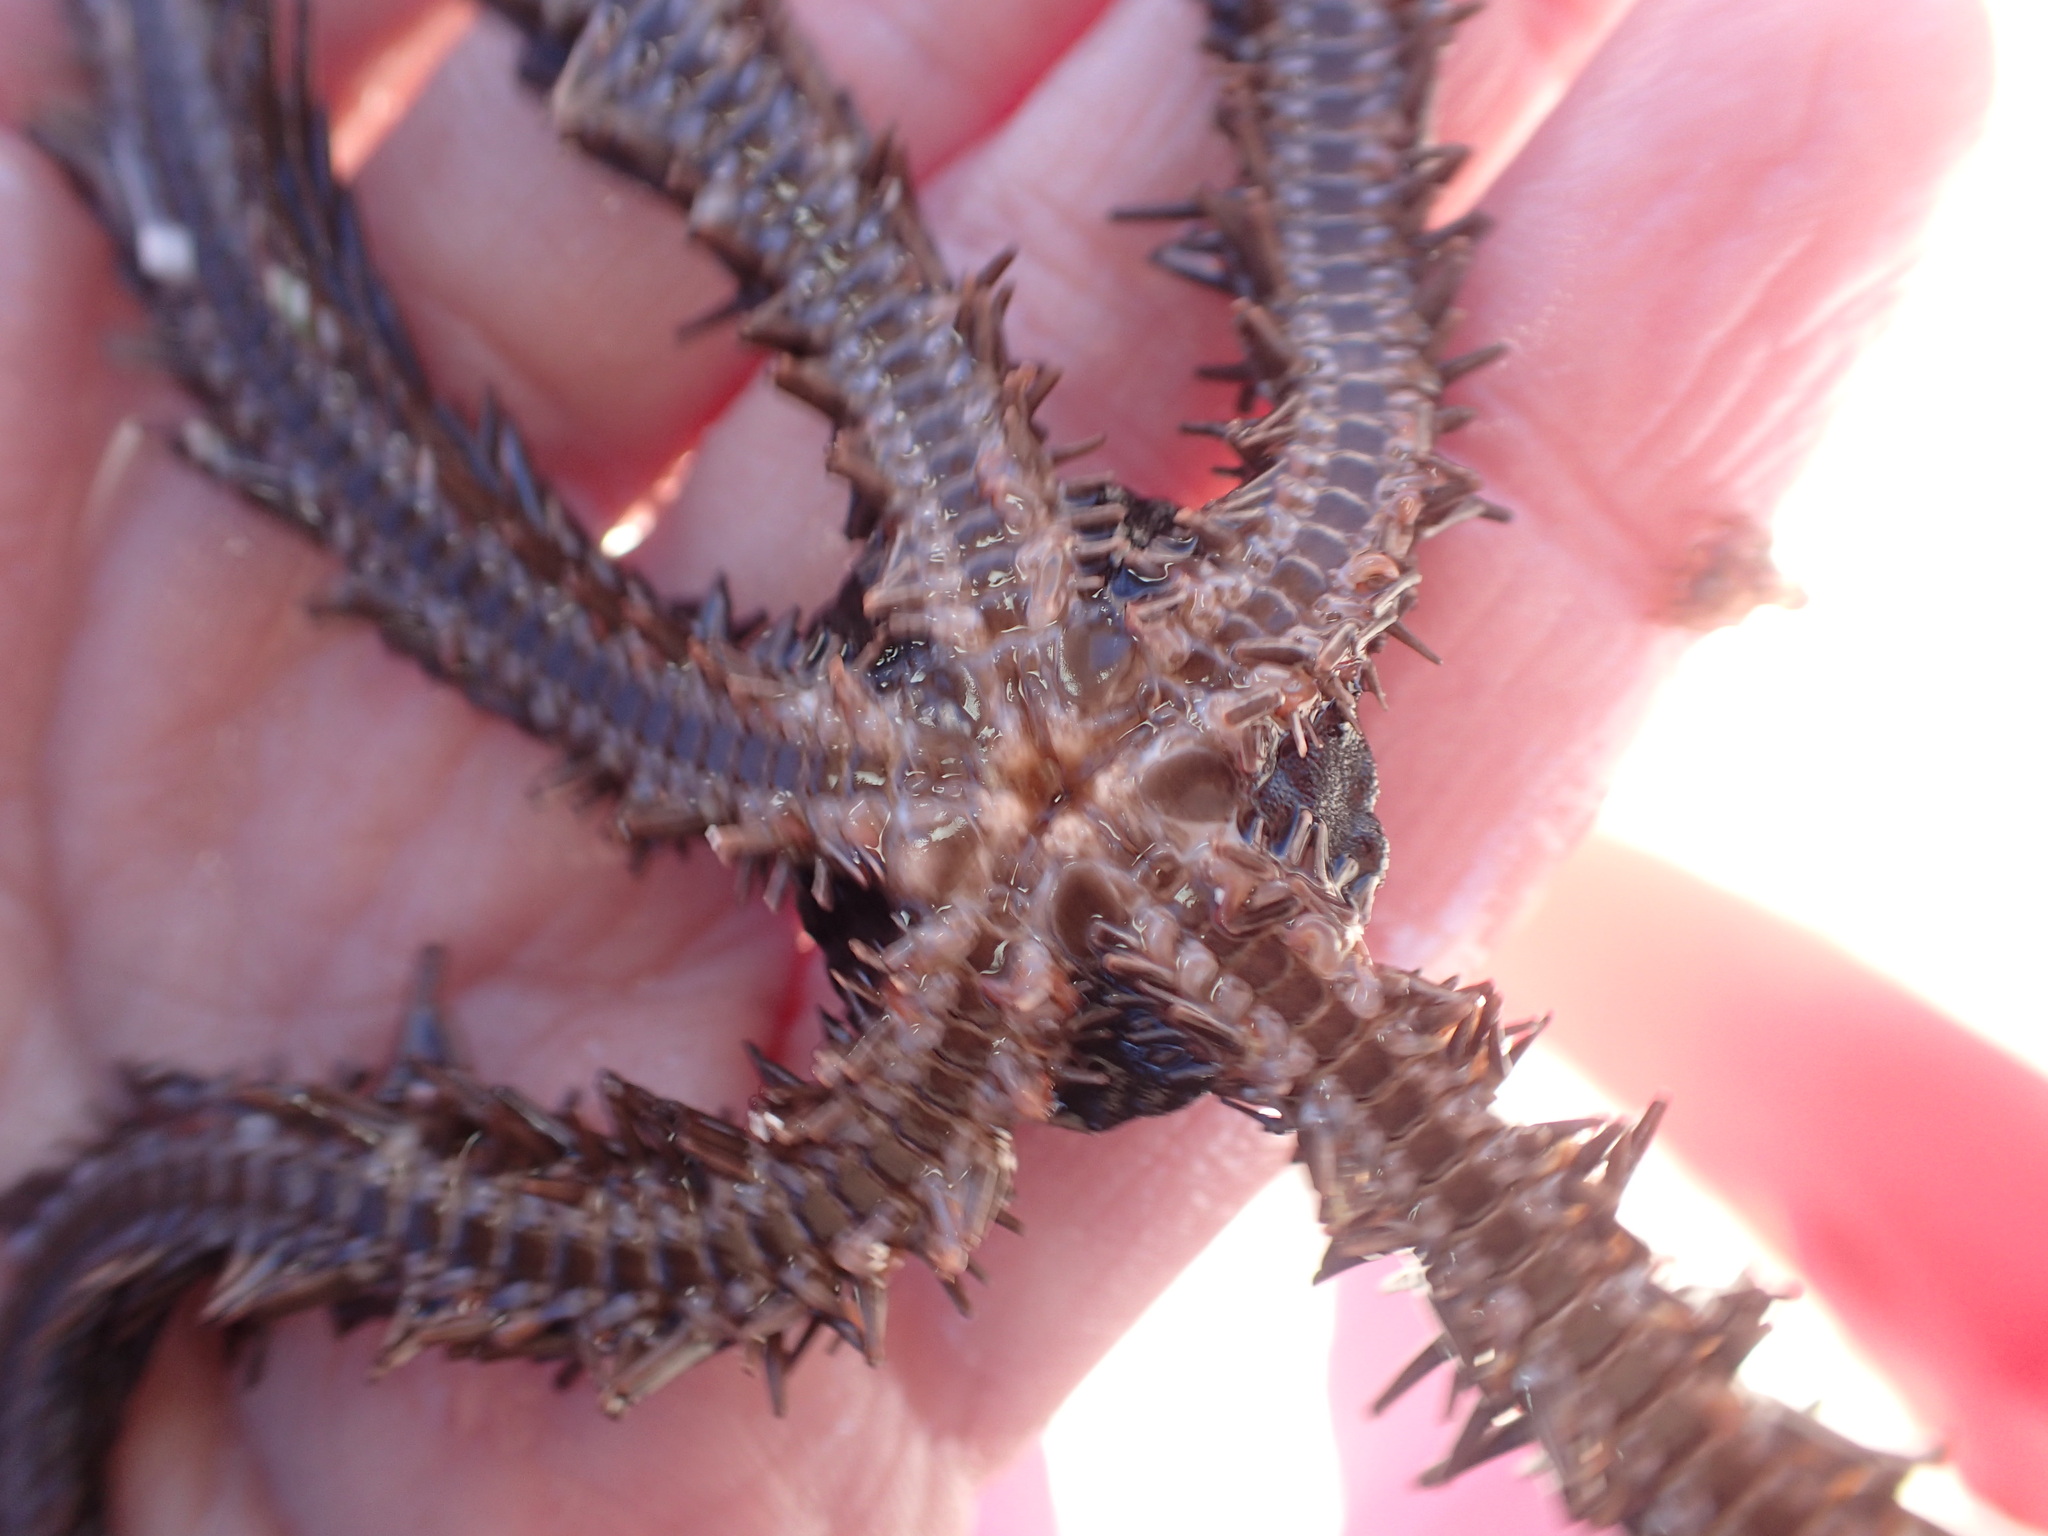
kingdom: Animalia
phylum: Echinodermata
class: Ophiuroidea
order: Ophiacanthida
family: Ophiocomidae
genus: Ophiocoma
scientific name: Ophiocoma aethiops
